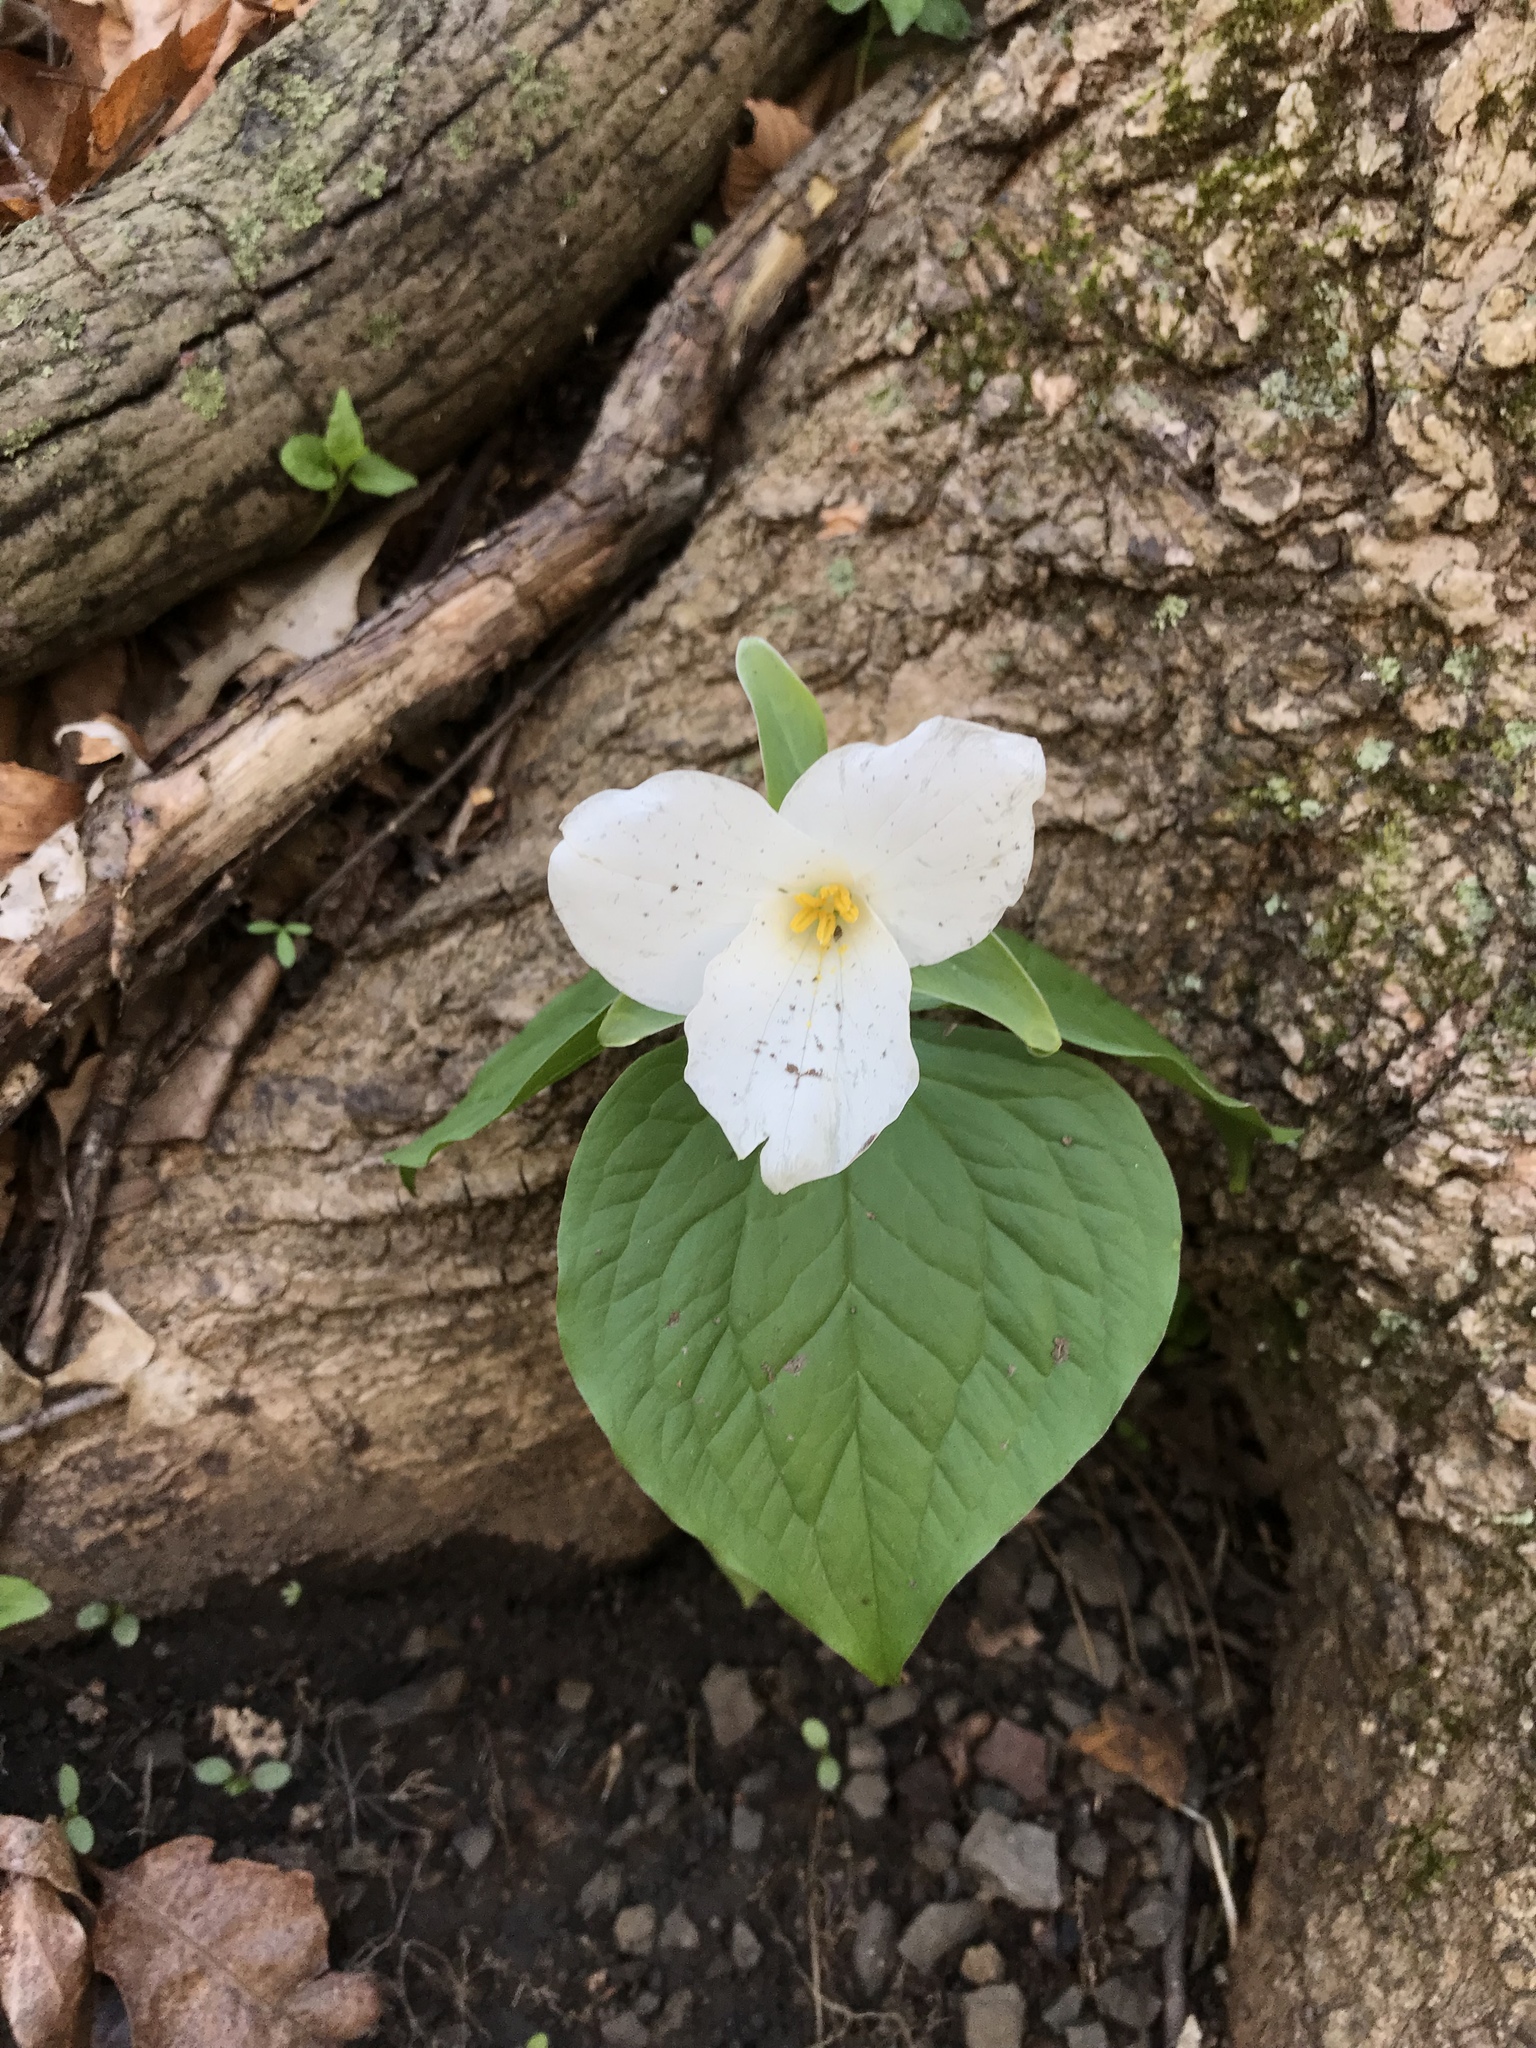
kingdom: Plantae
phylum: Tracheophyta
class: Liliopsida
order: Liliales
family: Melanthiaceae
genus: Trillium
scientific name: Trillium grandiflorum
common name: Great white trillium
